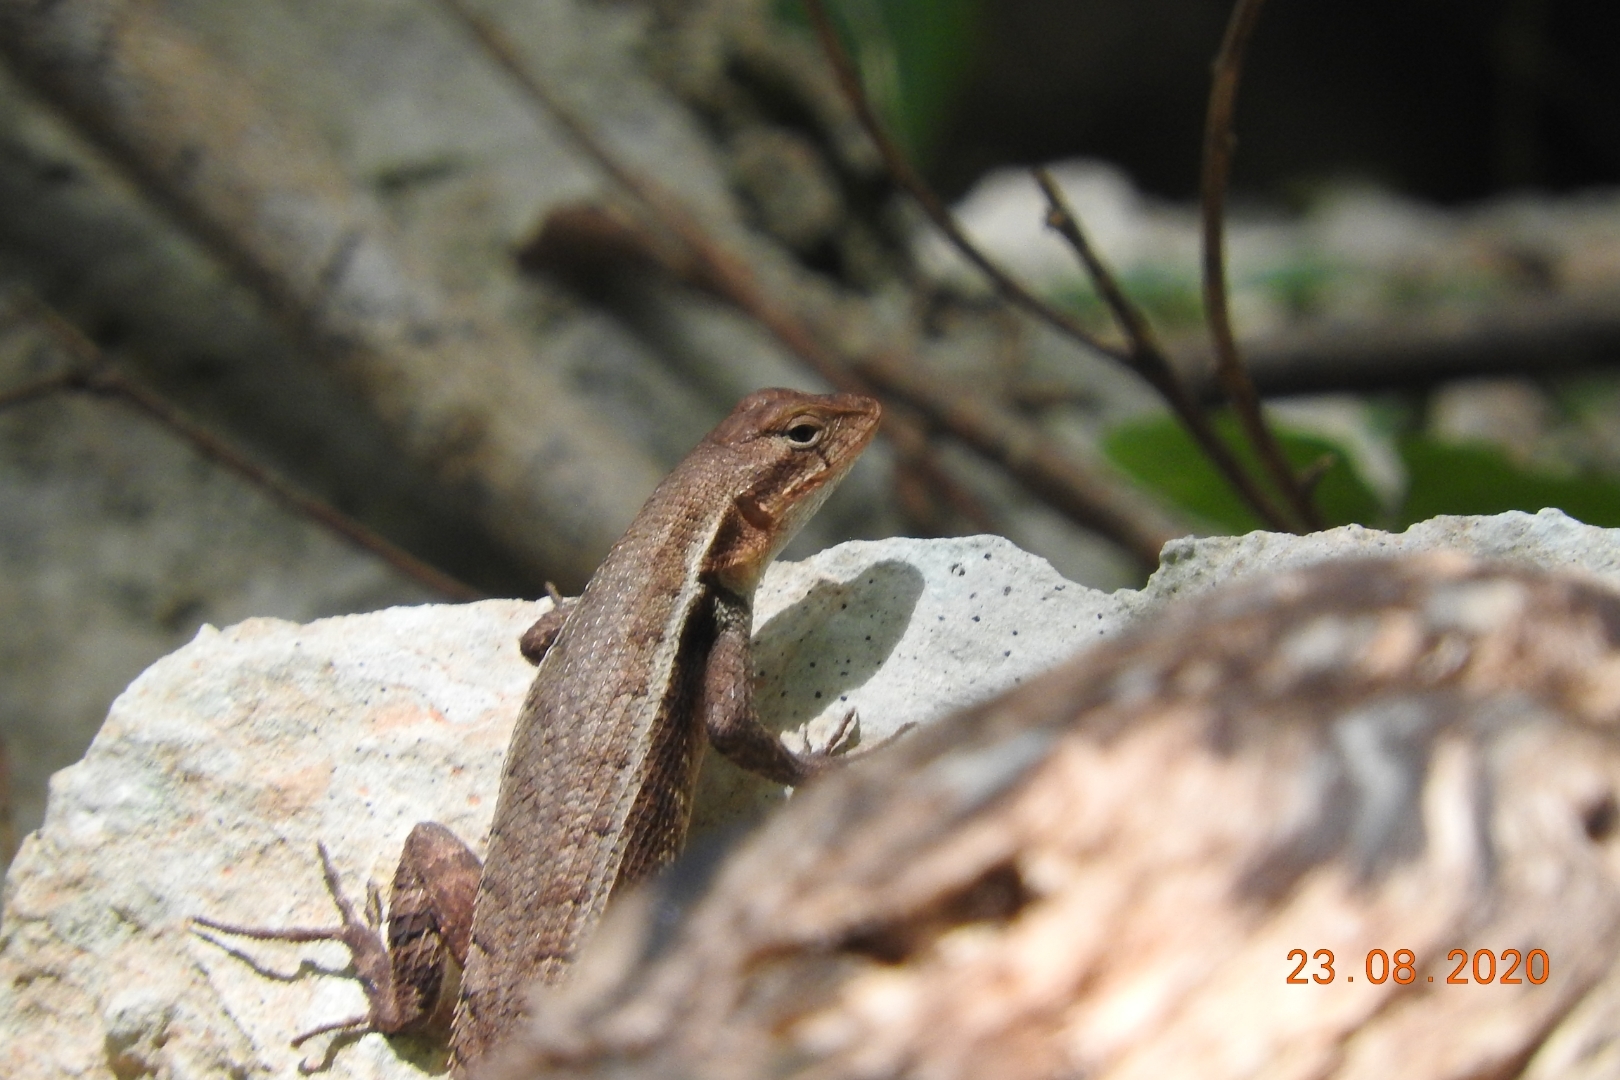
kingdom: Animalia
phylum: Chordata
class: Squamata
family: Phrynosomatidae
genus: Sceloporus
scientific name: Sceloporus chrysostictus
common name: Yellow-spotted spiny lizard
